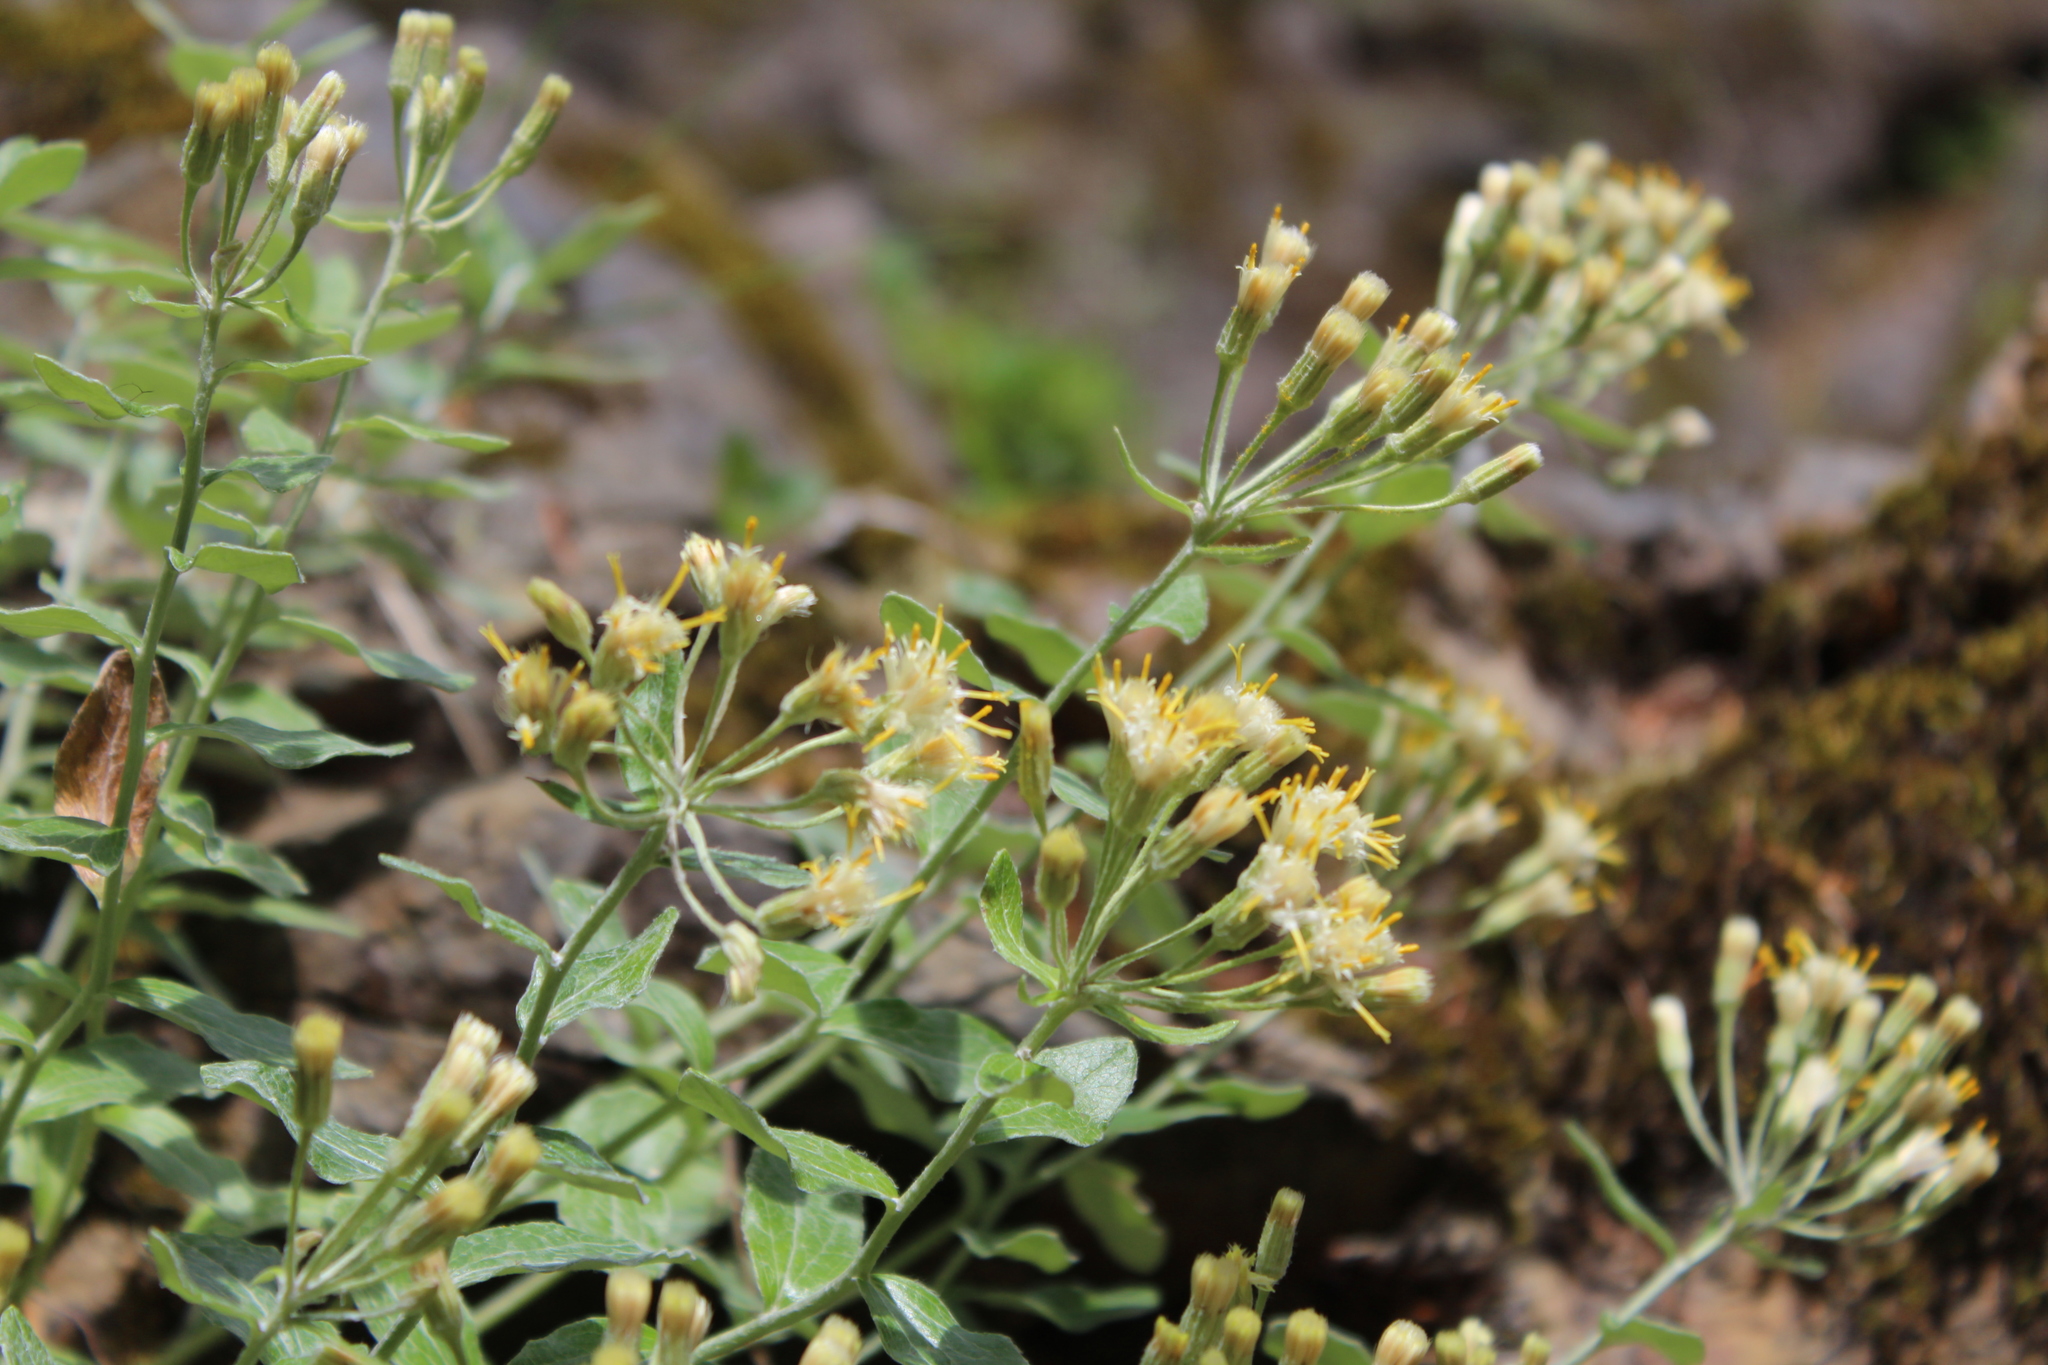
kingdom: Plantae
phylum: Tracheophyta
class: Magnoliopsida
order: Asterales
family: Asteraceae
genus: Luina
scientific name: Luina hypoleuca
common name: Little-leaved luina
